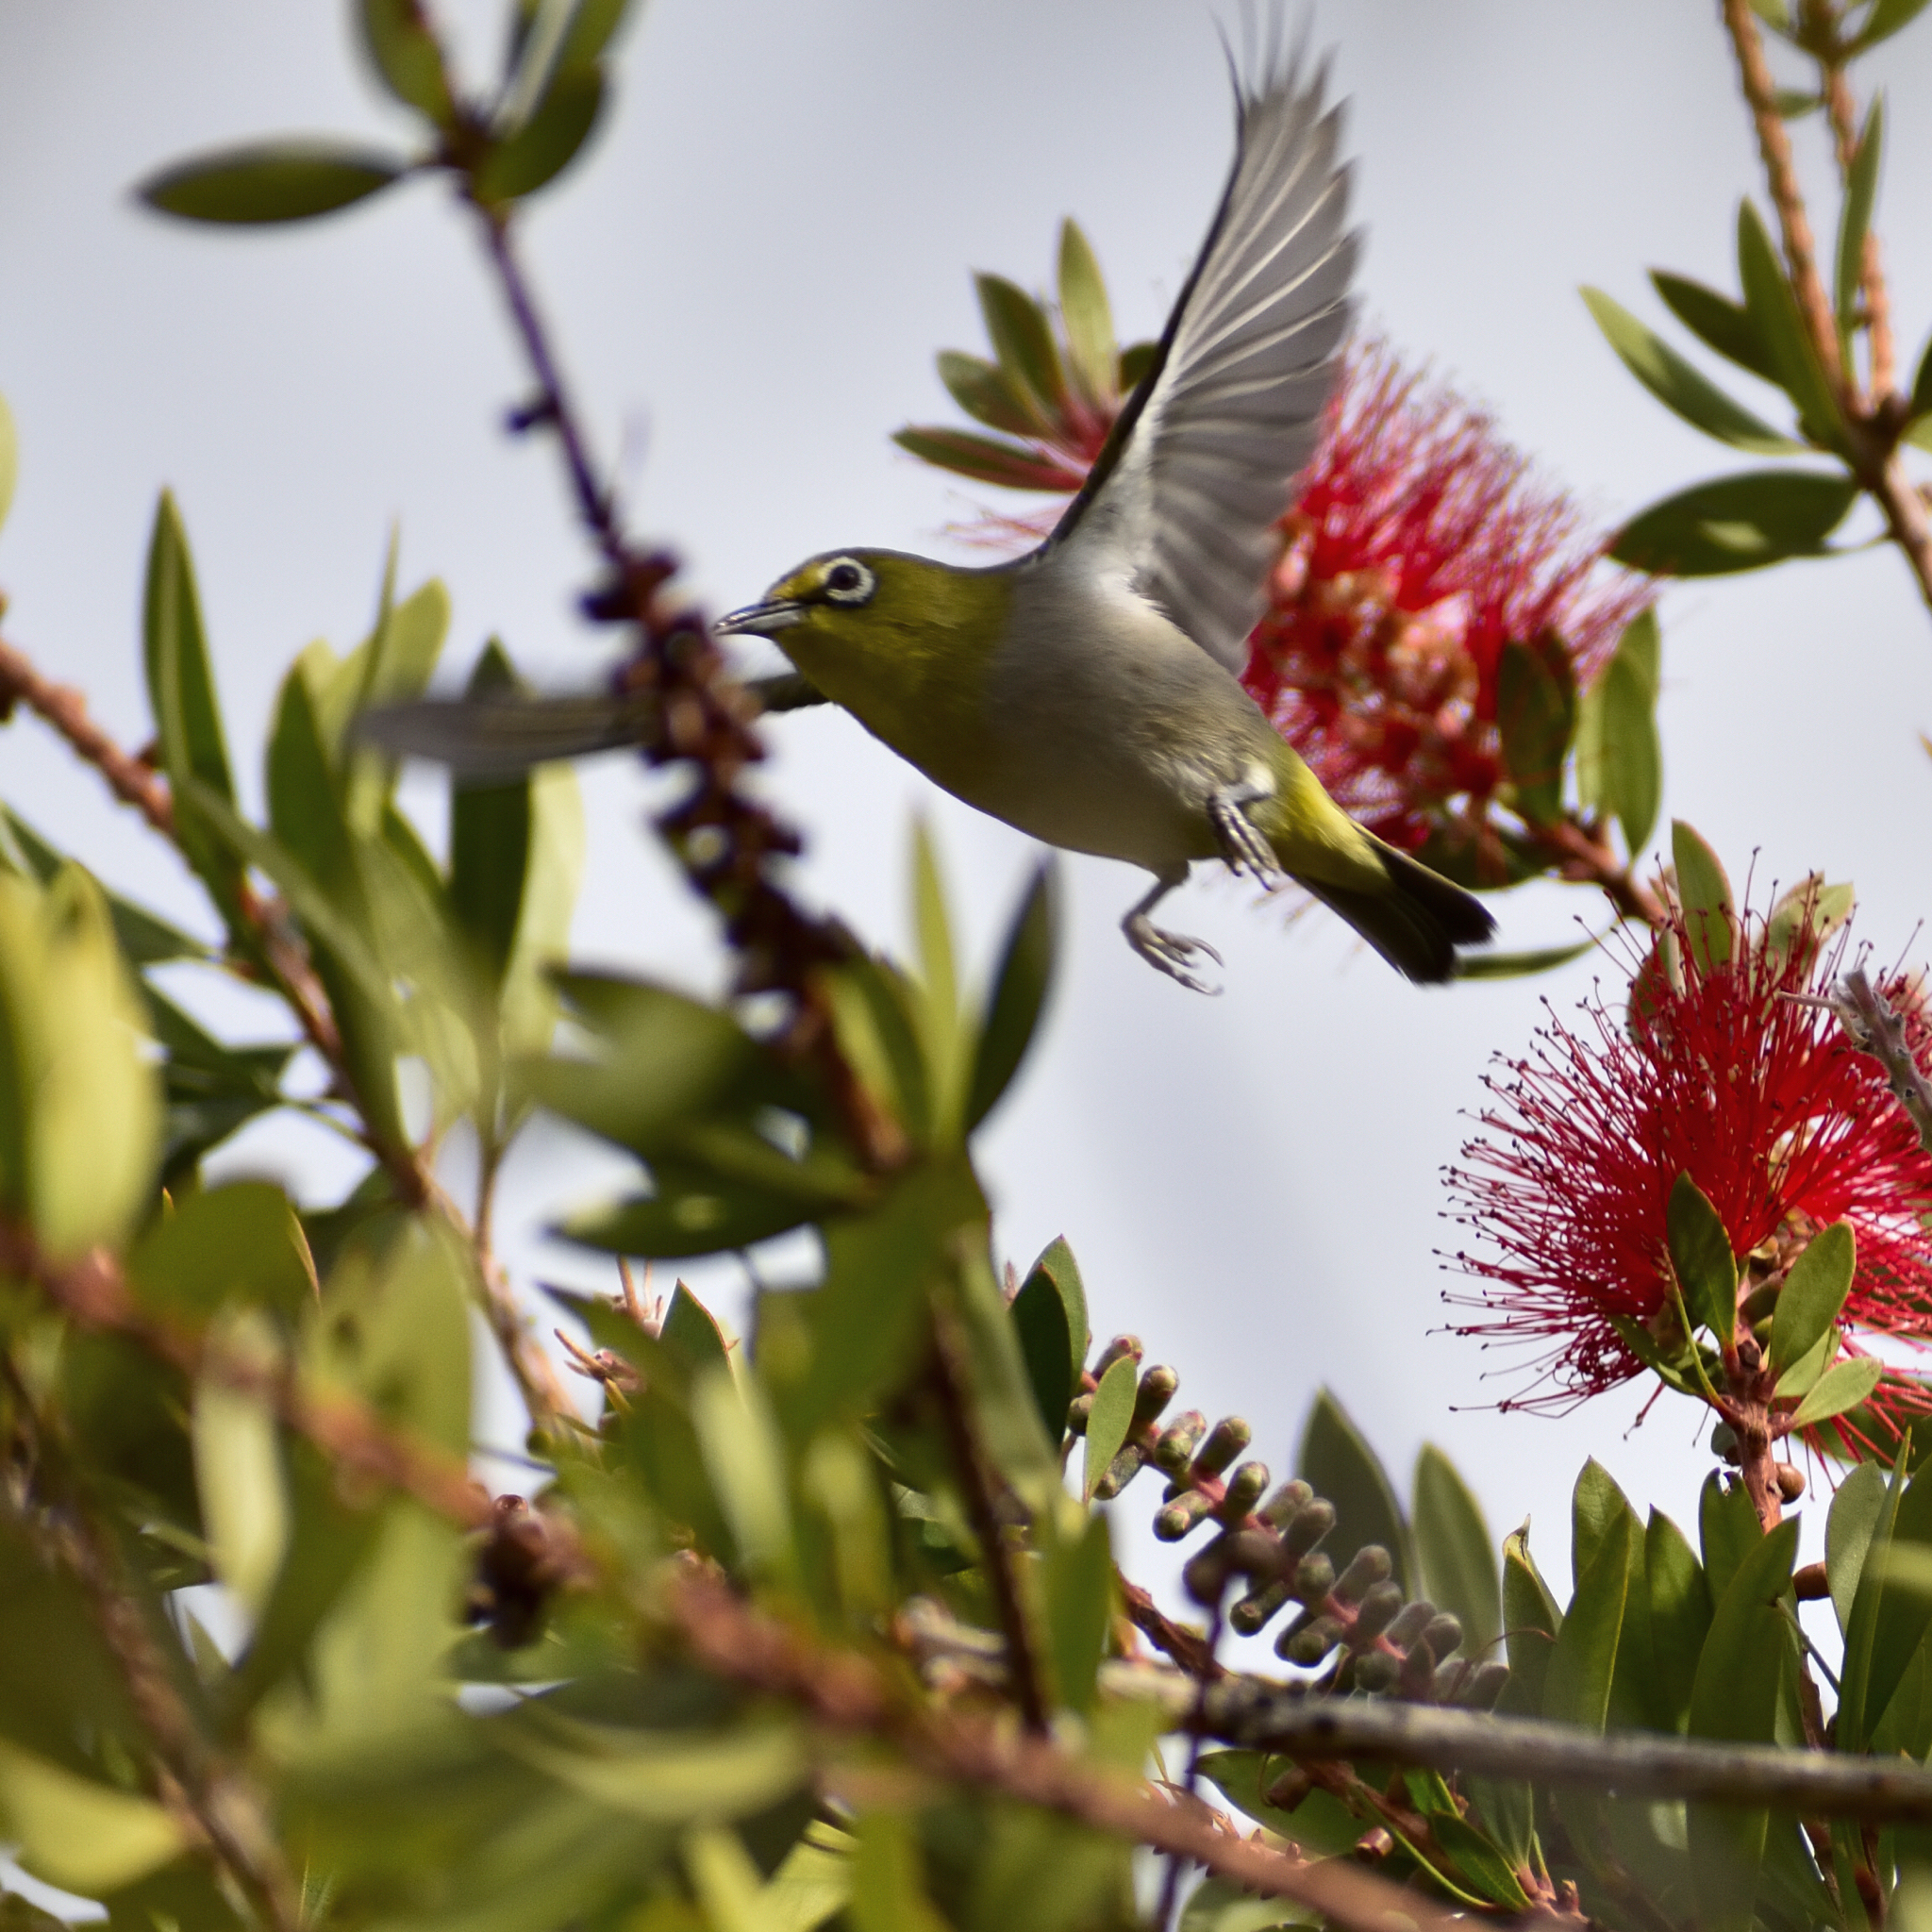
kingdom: Animalia
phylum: Chordata
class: Aves
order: Passeriformes
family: Zosteropidae
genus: Zosterops
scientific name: Zosterops simplex
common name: Swinhoe's white-eye
